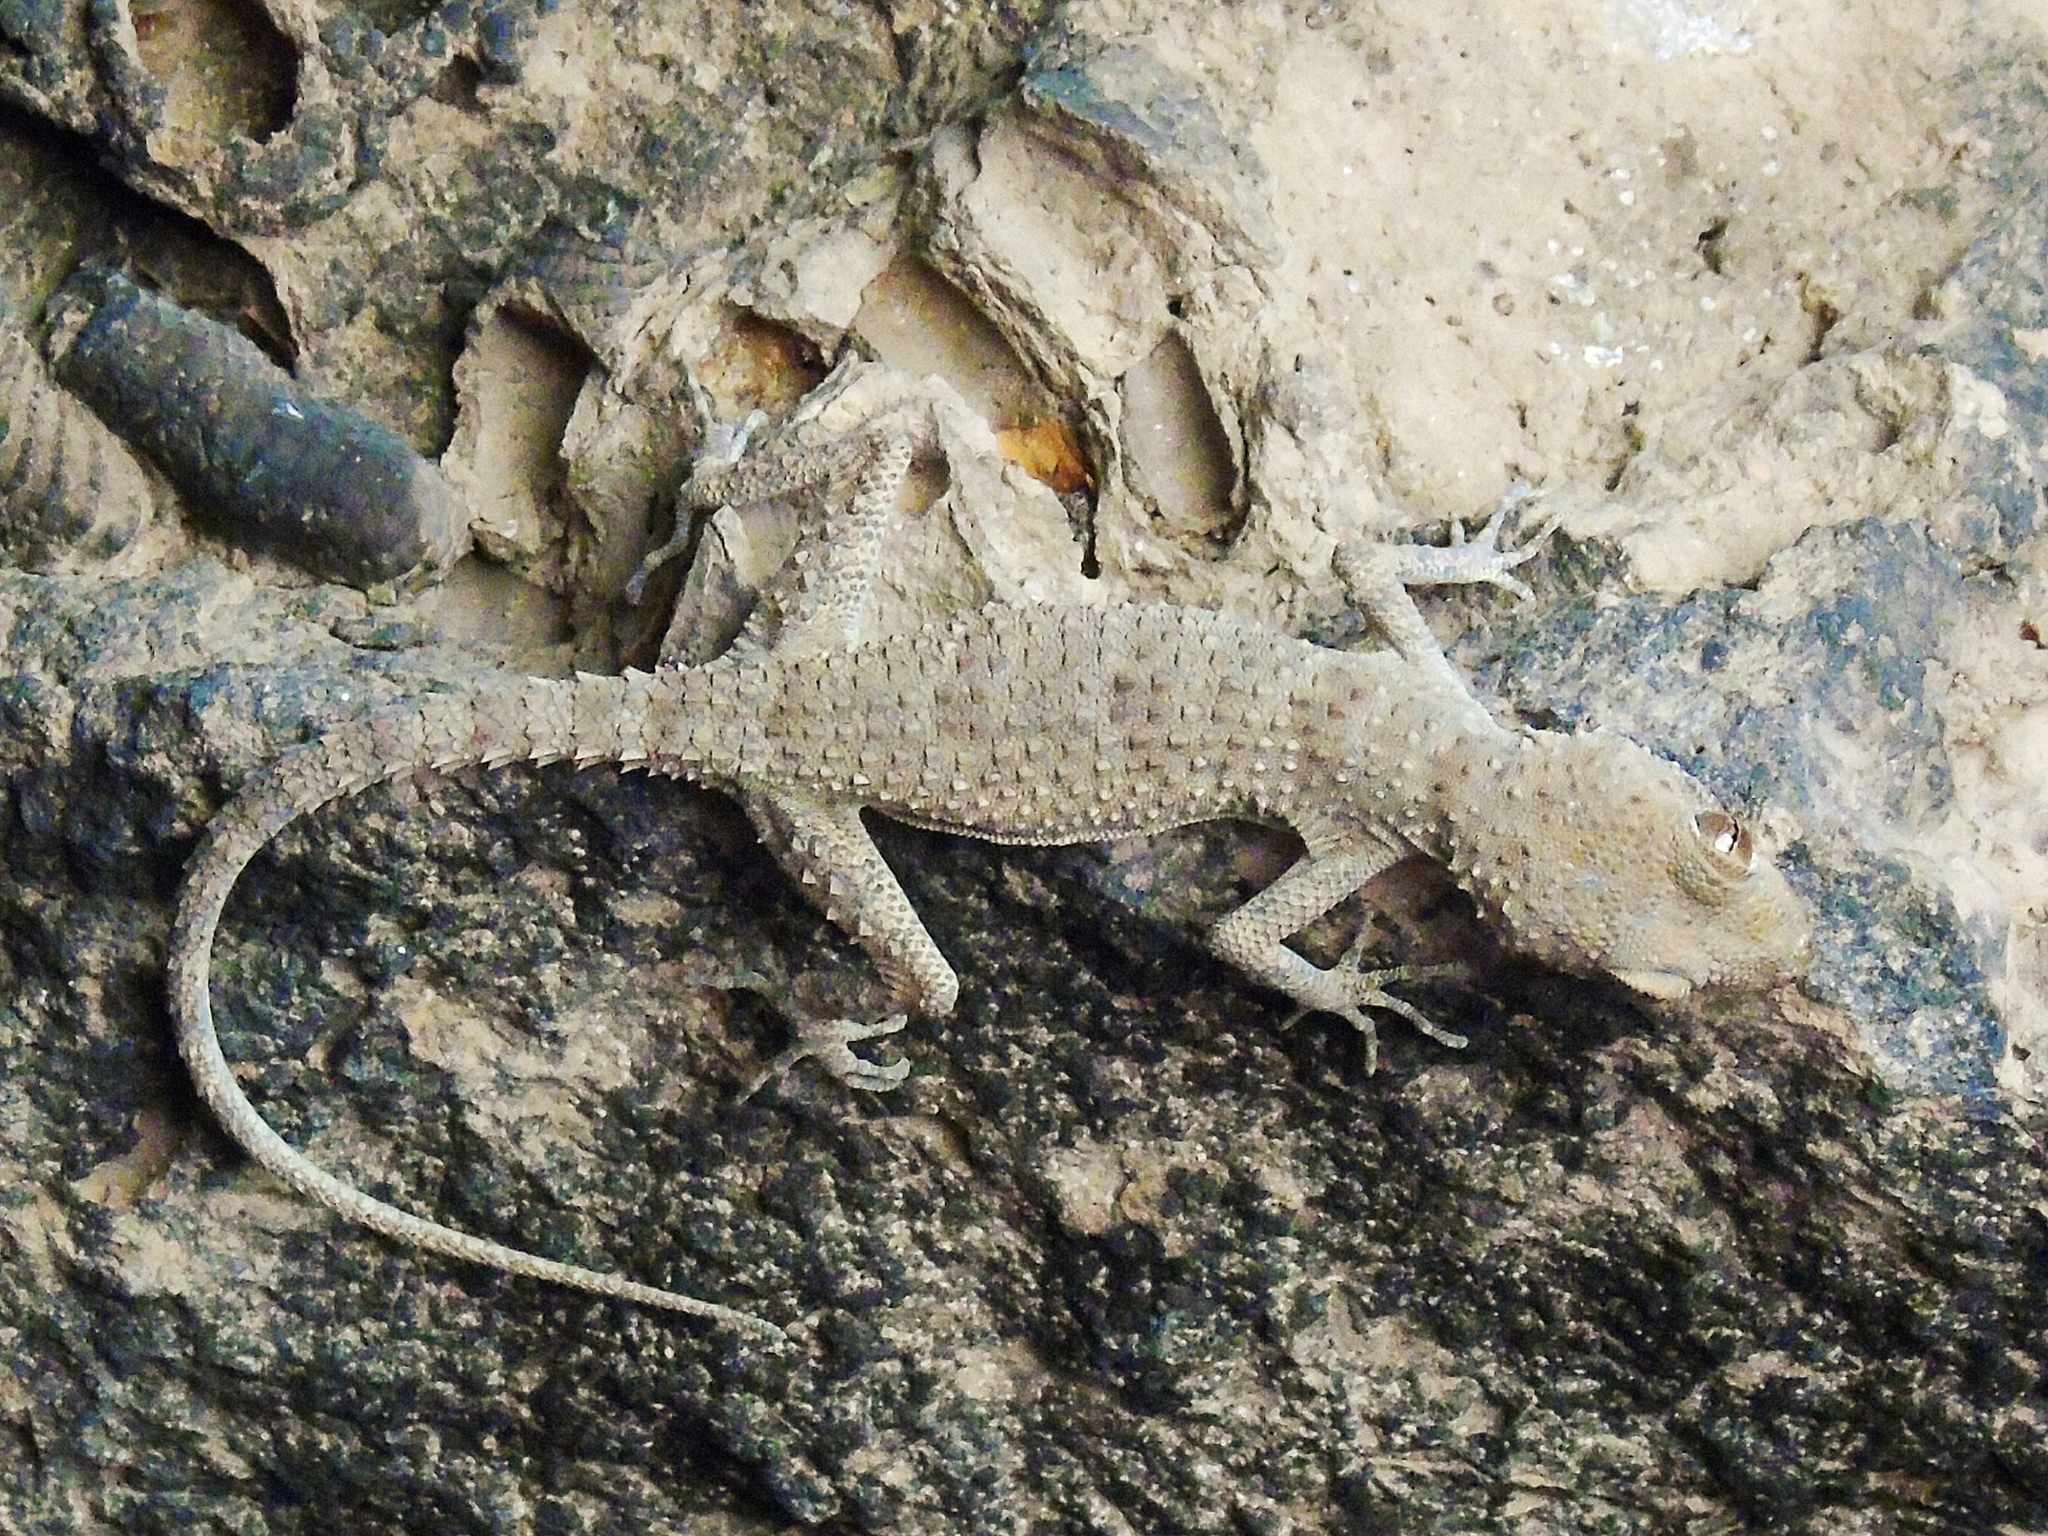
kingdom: Animalia
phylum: Chordata
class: Squamata
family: Gekkonidae
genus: Tenuidactylus
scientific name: Tenuidactylus bogdanovi
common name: Bogdanov’s thin-toed gecko
